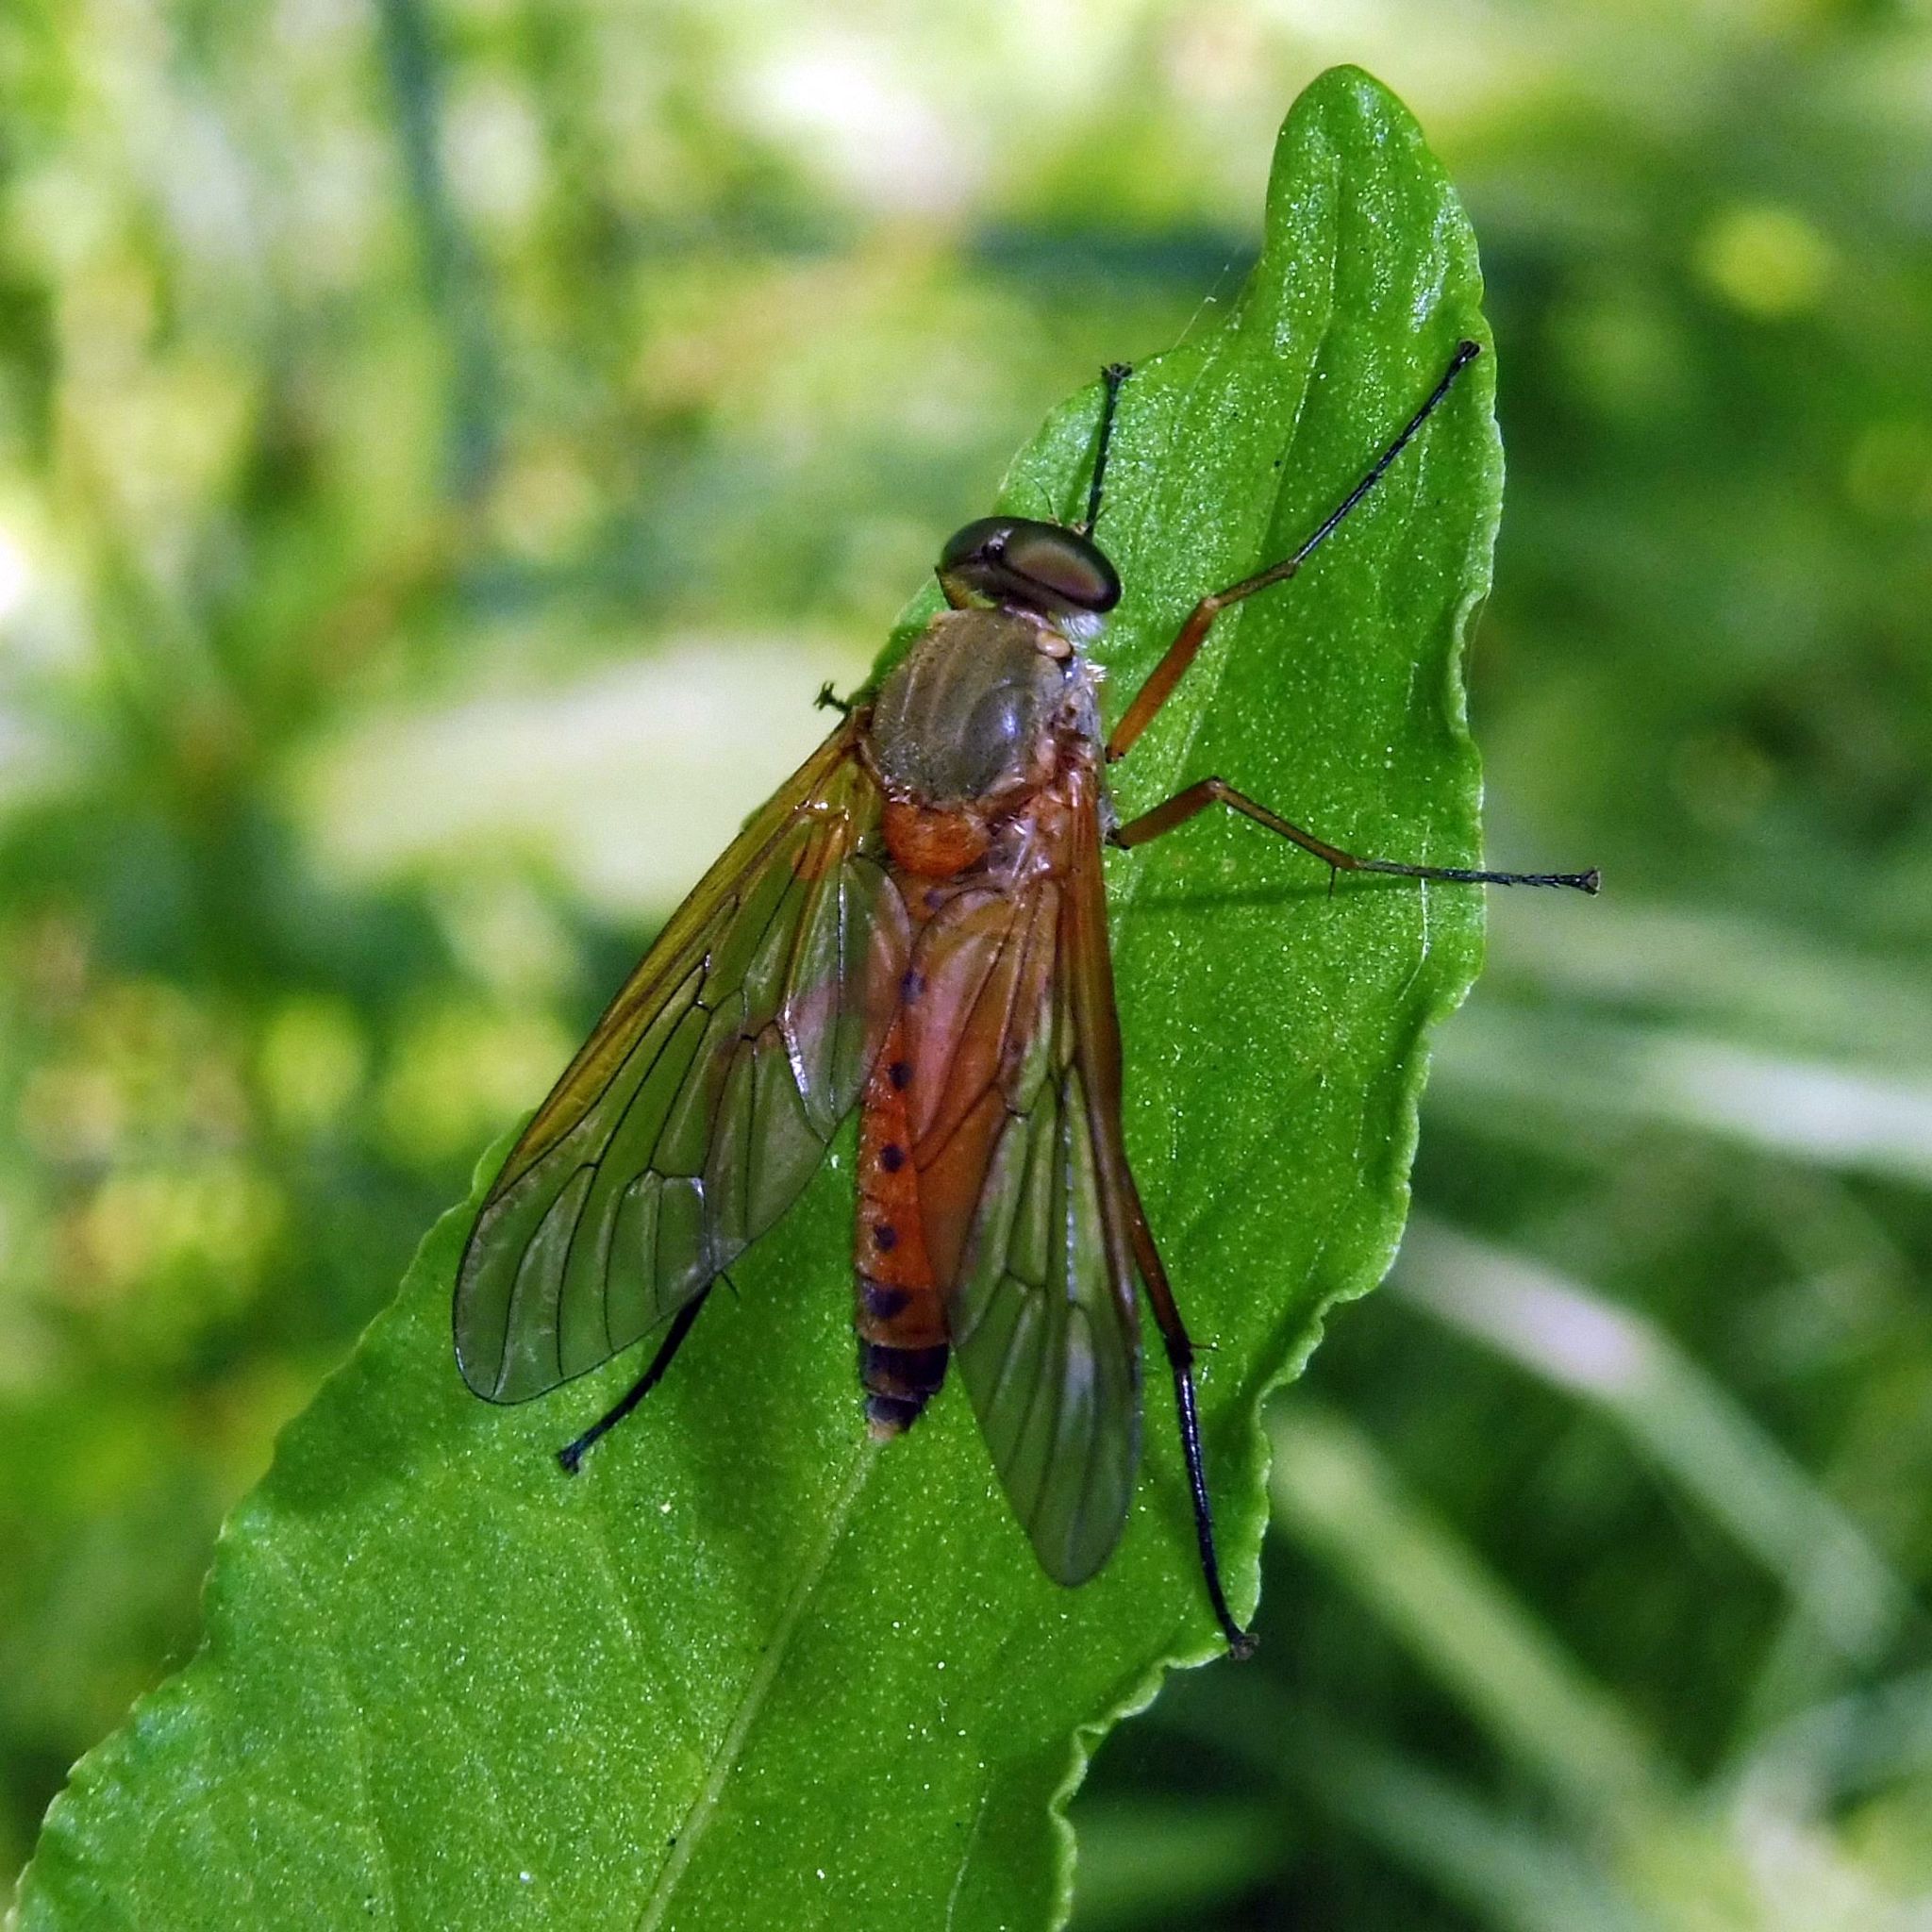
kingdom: Animalia
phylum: Arthropoda
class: Insecta
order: Diptera
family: Rhagionidae
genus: Rhagio
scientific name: Rhagio tringaria
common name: Marsh snipefly
